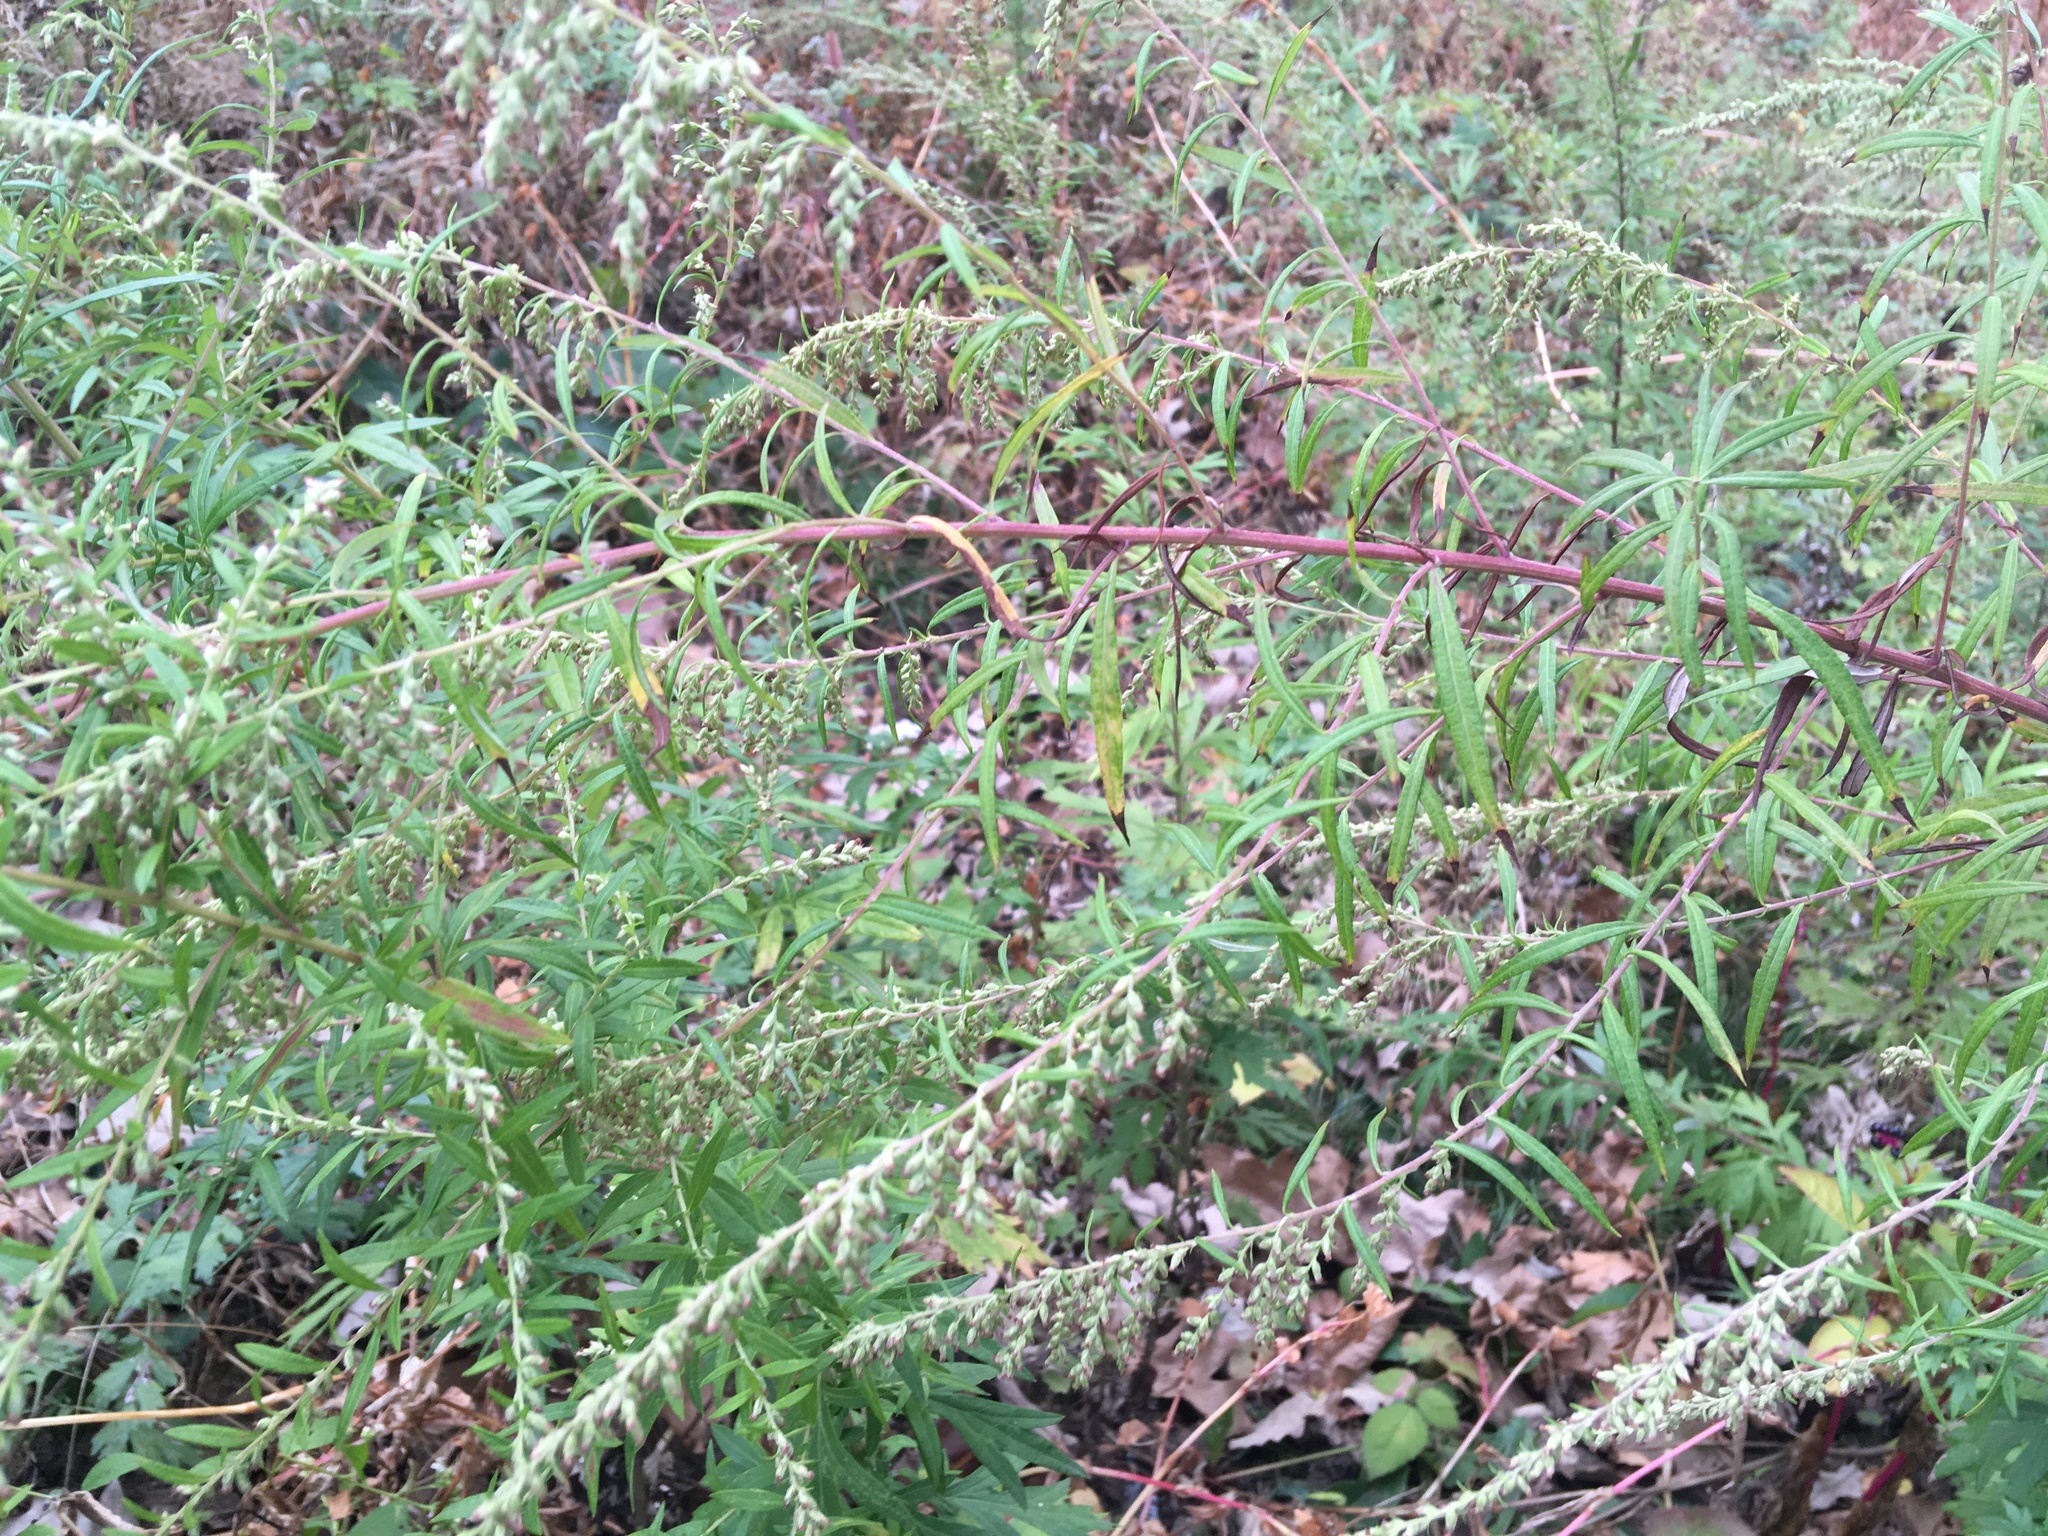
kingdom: Plantae
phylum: Tracheophyta
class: Magnoliopsida
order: Asterales
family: Asteraceae
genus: Artemisia
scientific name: Artemisia vulgaris
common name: Mugwort
